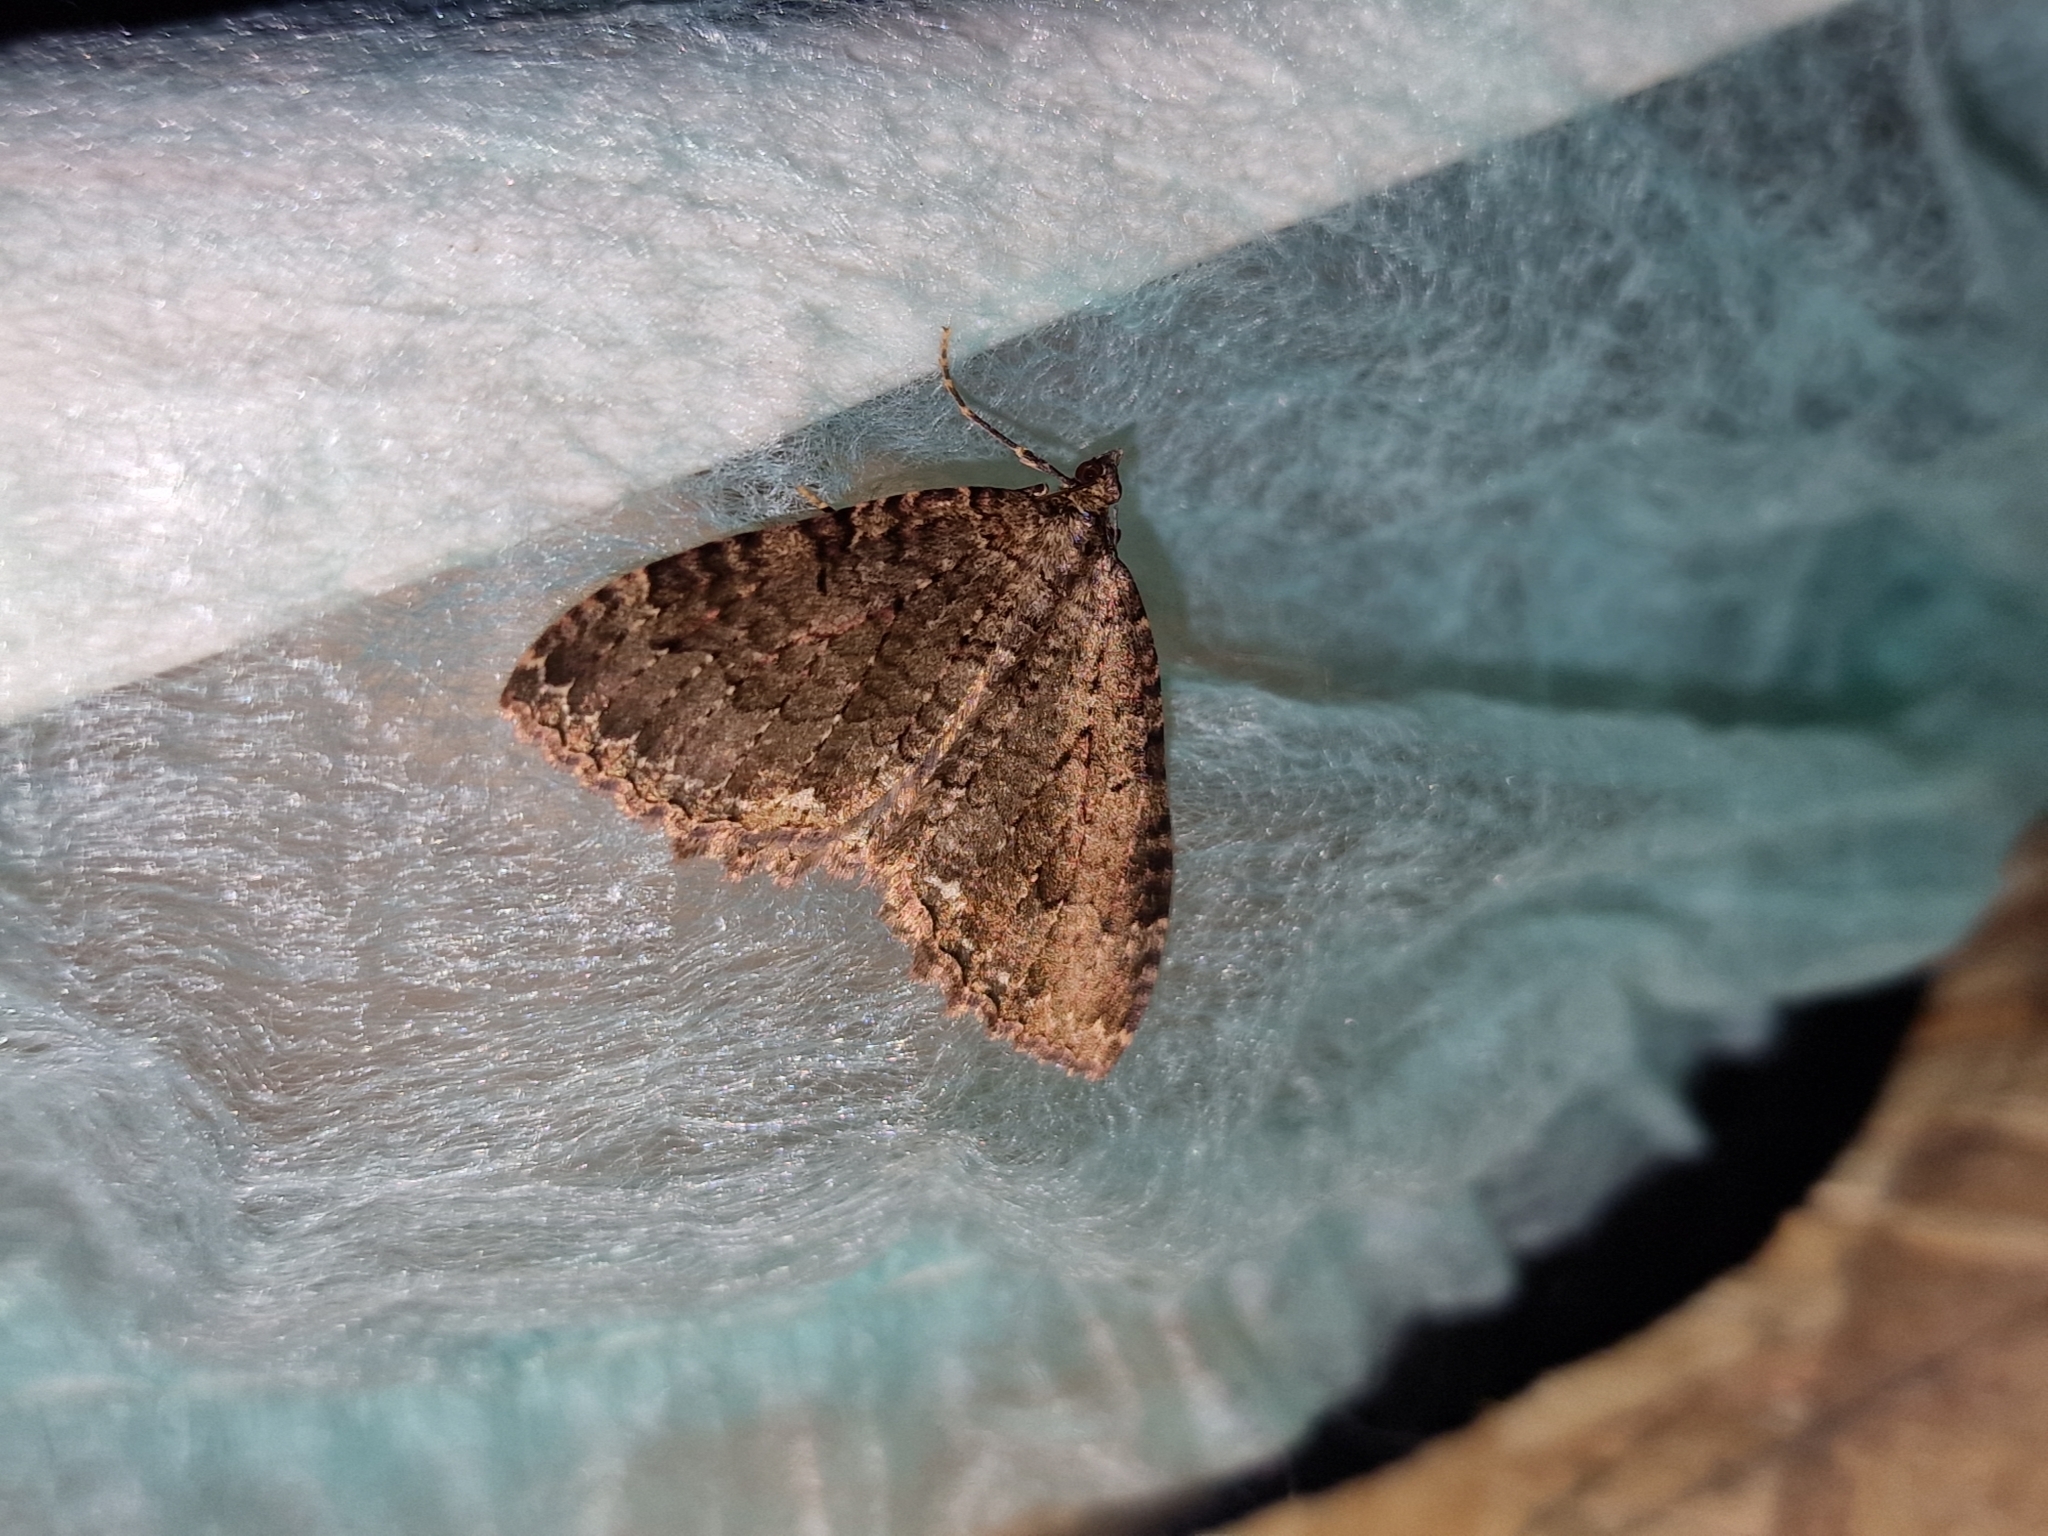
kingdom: Animalia
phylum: Arthropoda
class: Insecta
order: Lepidoptera
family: Geometridae
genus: Triphosa
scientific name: Triphosa dubitata
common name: Tissue
